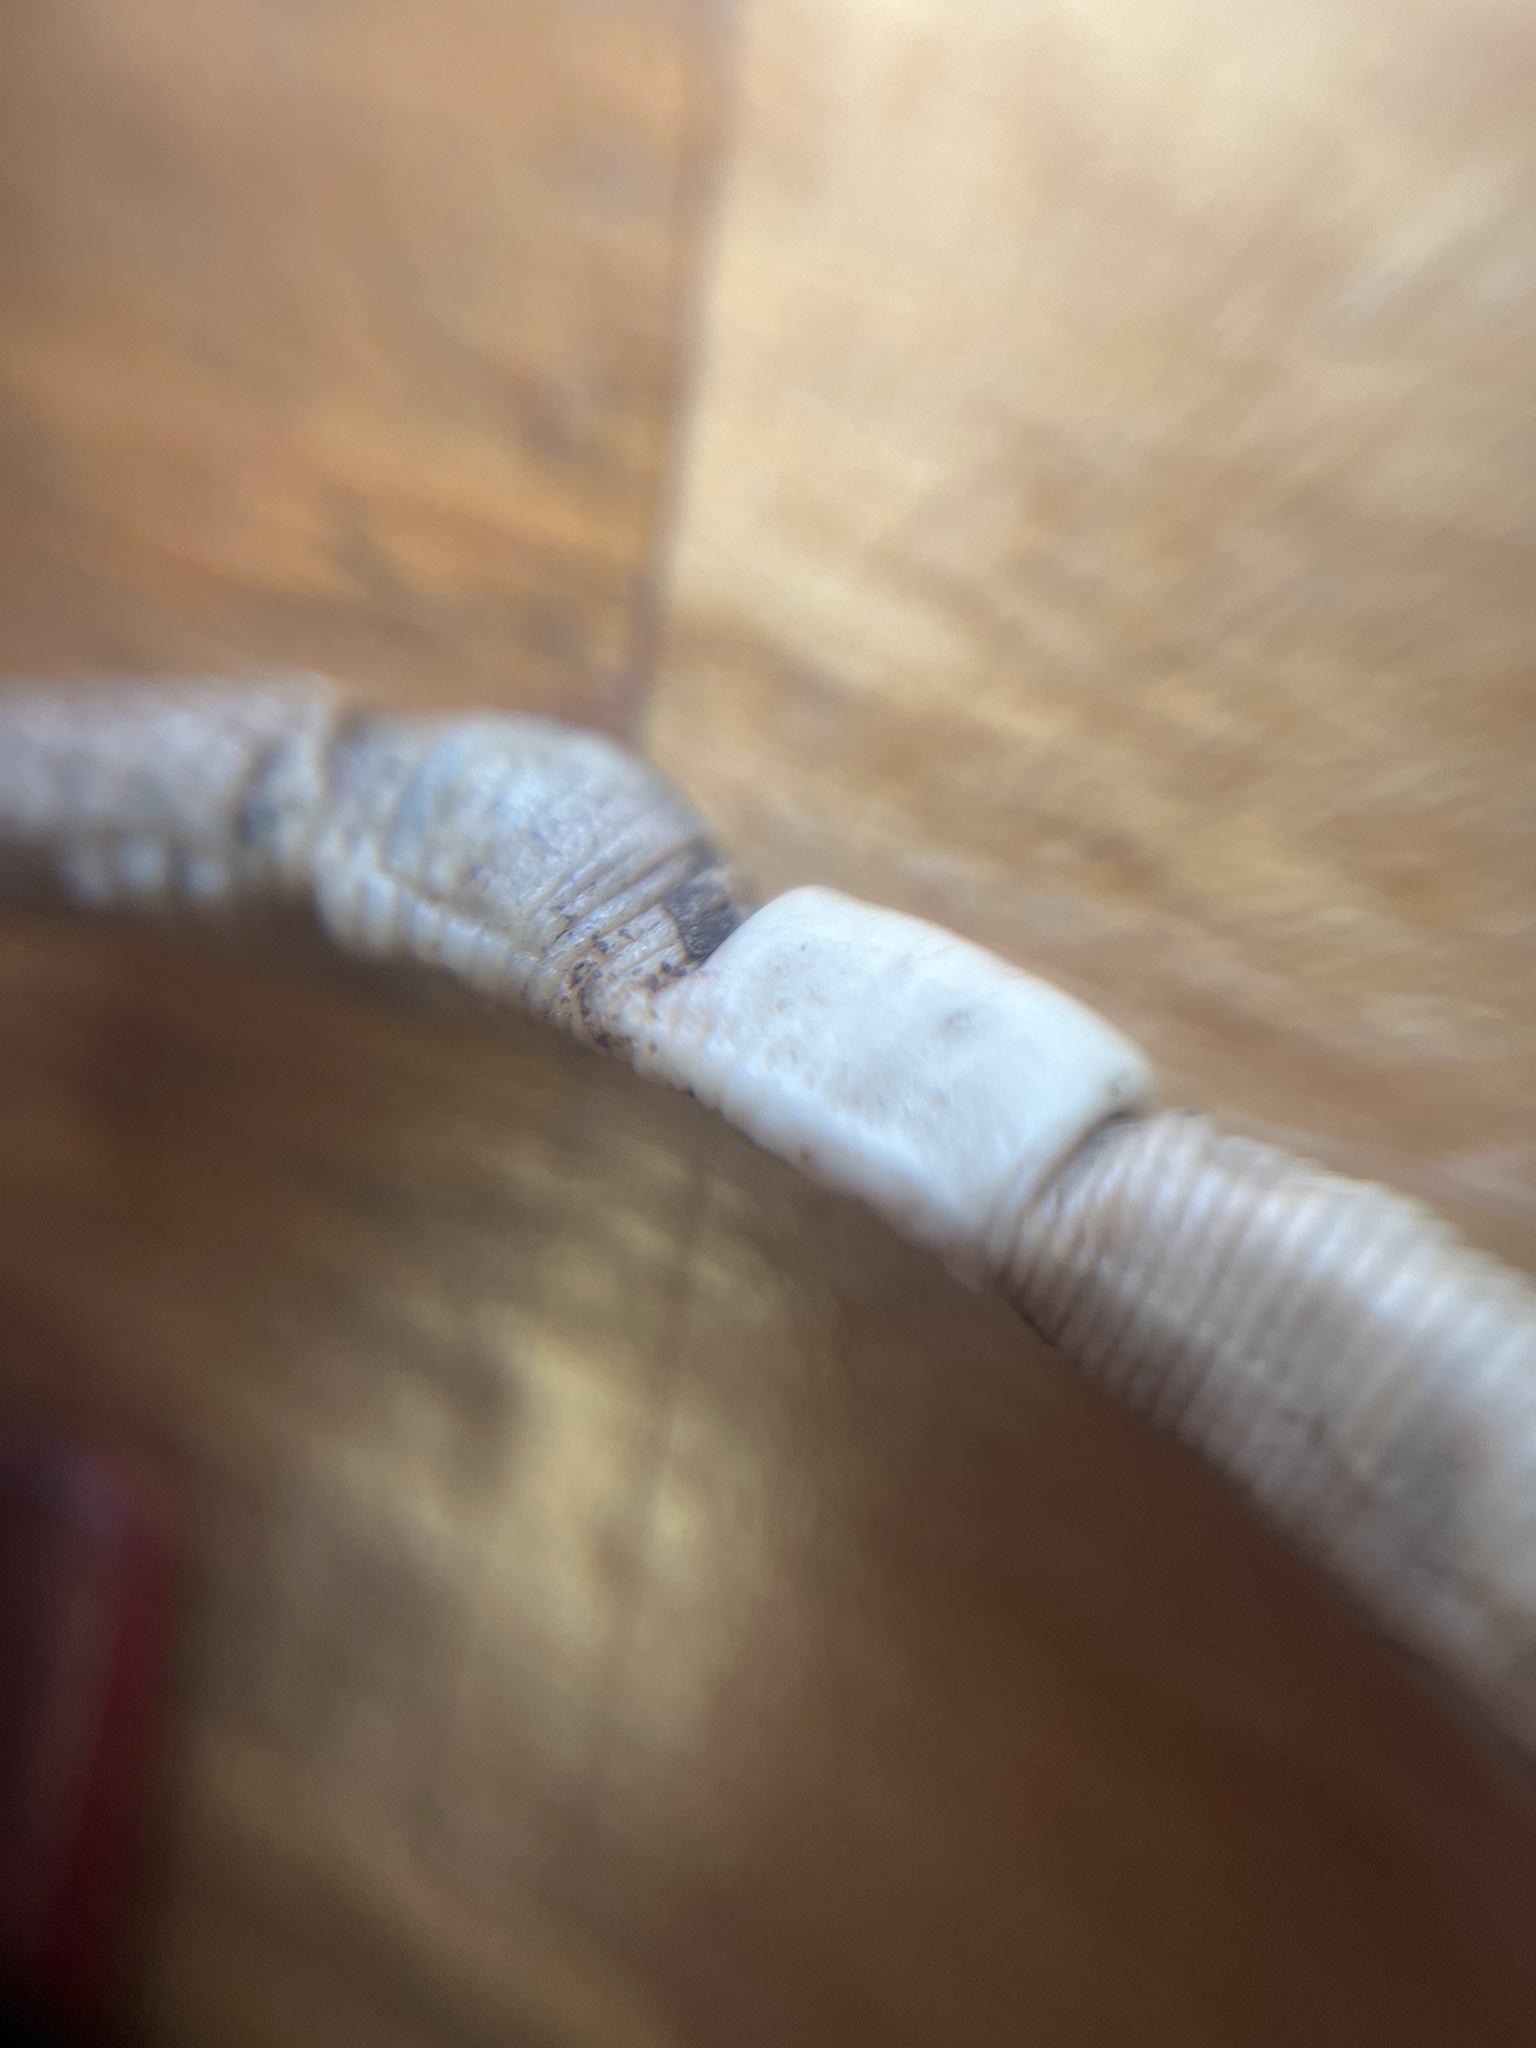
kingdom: Animalia
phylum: Annelida
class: Clitellata
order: Crassiclitellata
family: Lumbricidae
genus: Aporrectodea
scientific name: Aporrectodea limicola
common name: Mudworm
